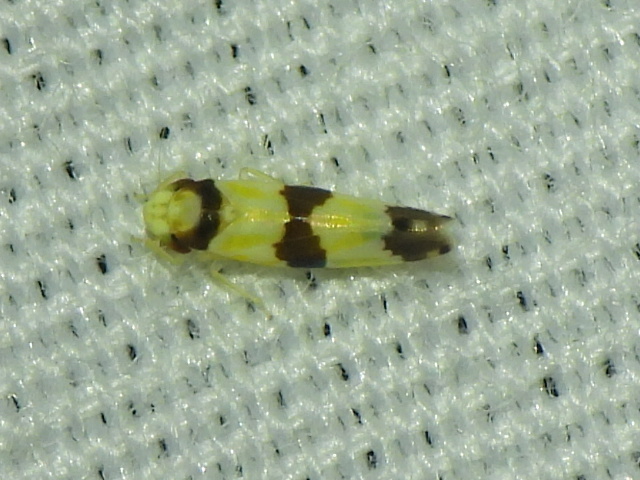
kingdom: Animalia
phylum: Arthropoda
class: Insecta
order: Hemiptera
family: Cicadellidae
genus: Erythroneura
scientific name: Erythroneura calycula
